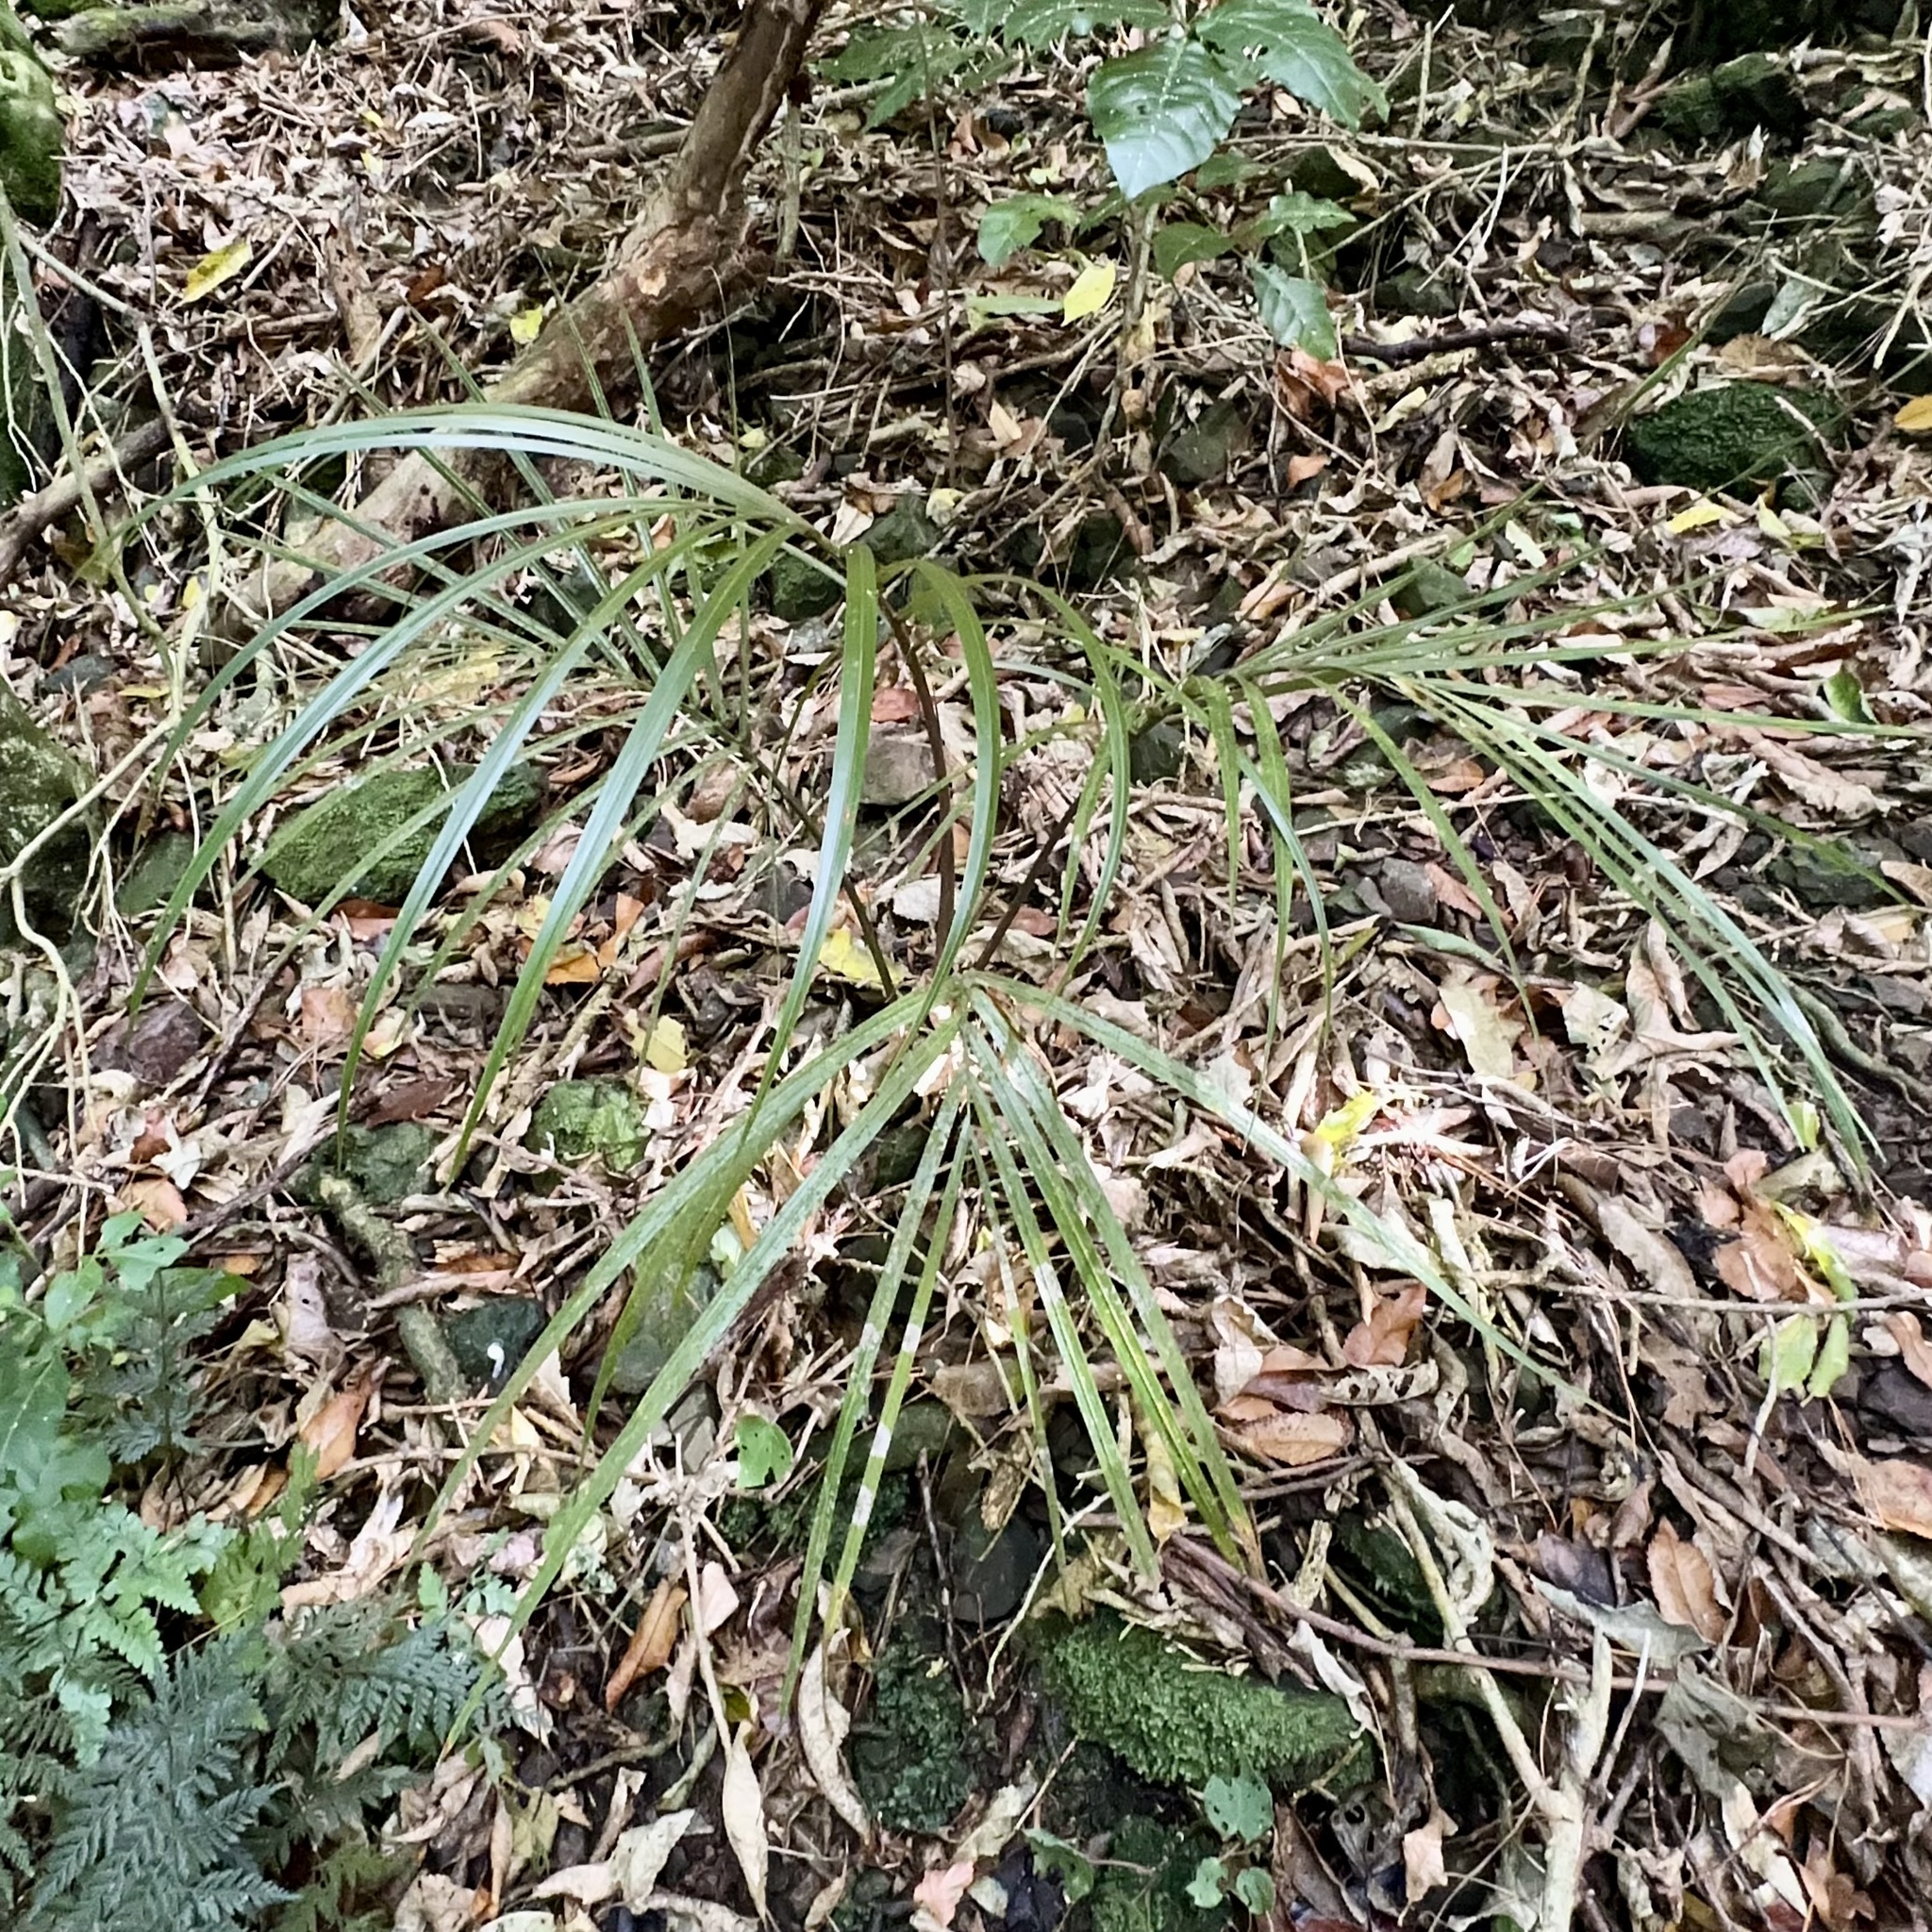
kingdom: Plantae
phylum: Tracheophyta
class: Liliopsida
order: Arecales
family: Arecaceae
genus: Rhopalostylis
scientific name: Rhopalostylis sapida
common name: Feather-duster palm
